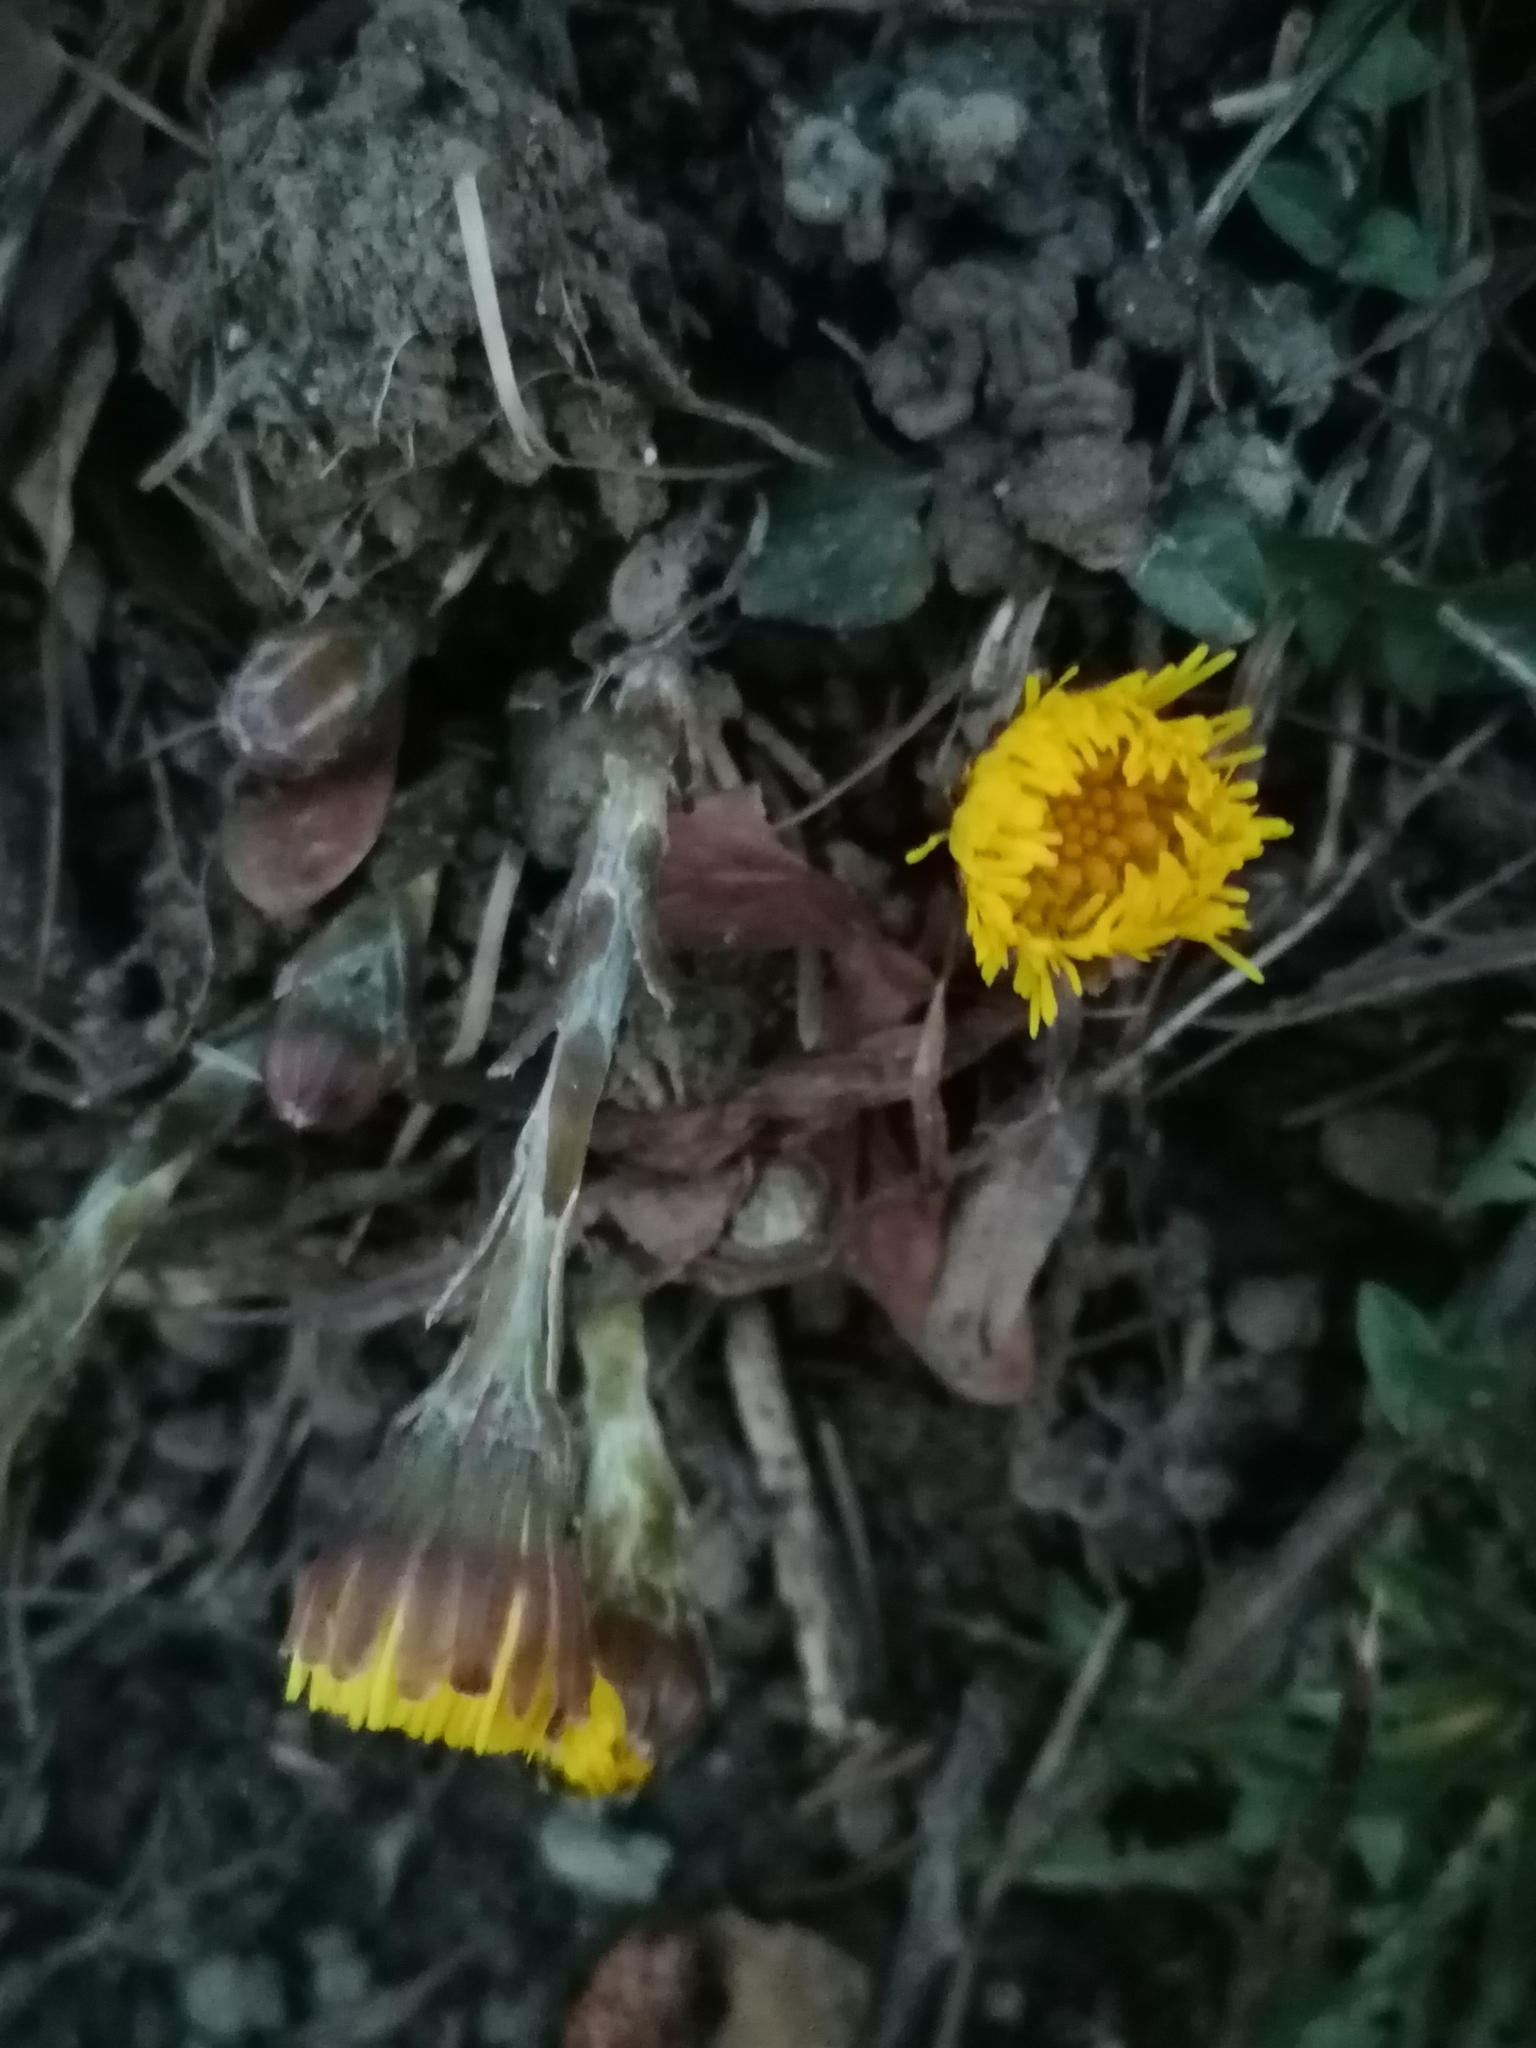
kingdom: Plantae
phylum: Tracheophyta
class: Magnoliopsida
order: Asterales
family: Asteraceae
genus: Tussilago
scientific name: Tussilago farfara
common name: Coltsfoot
